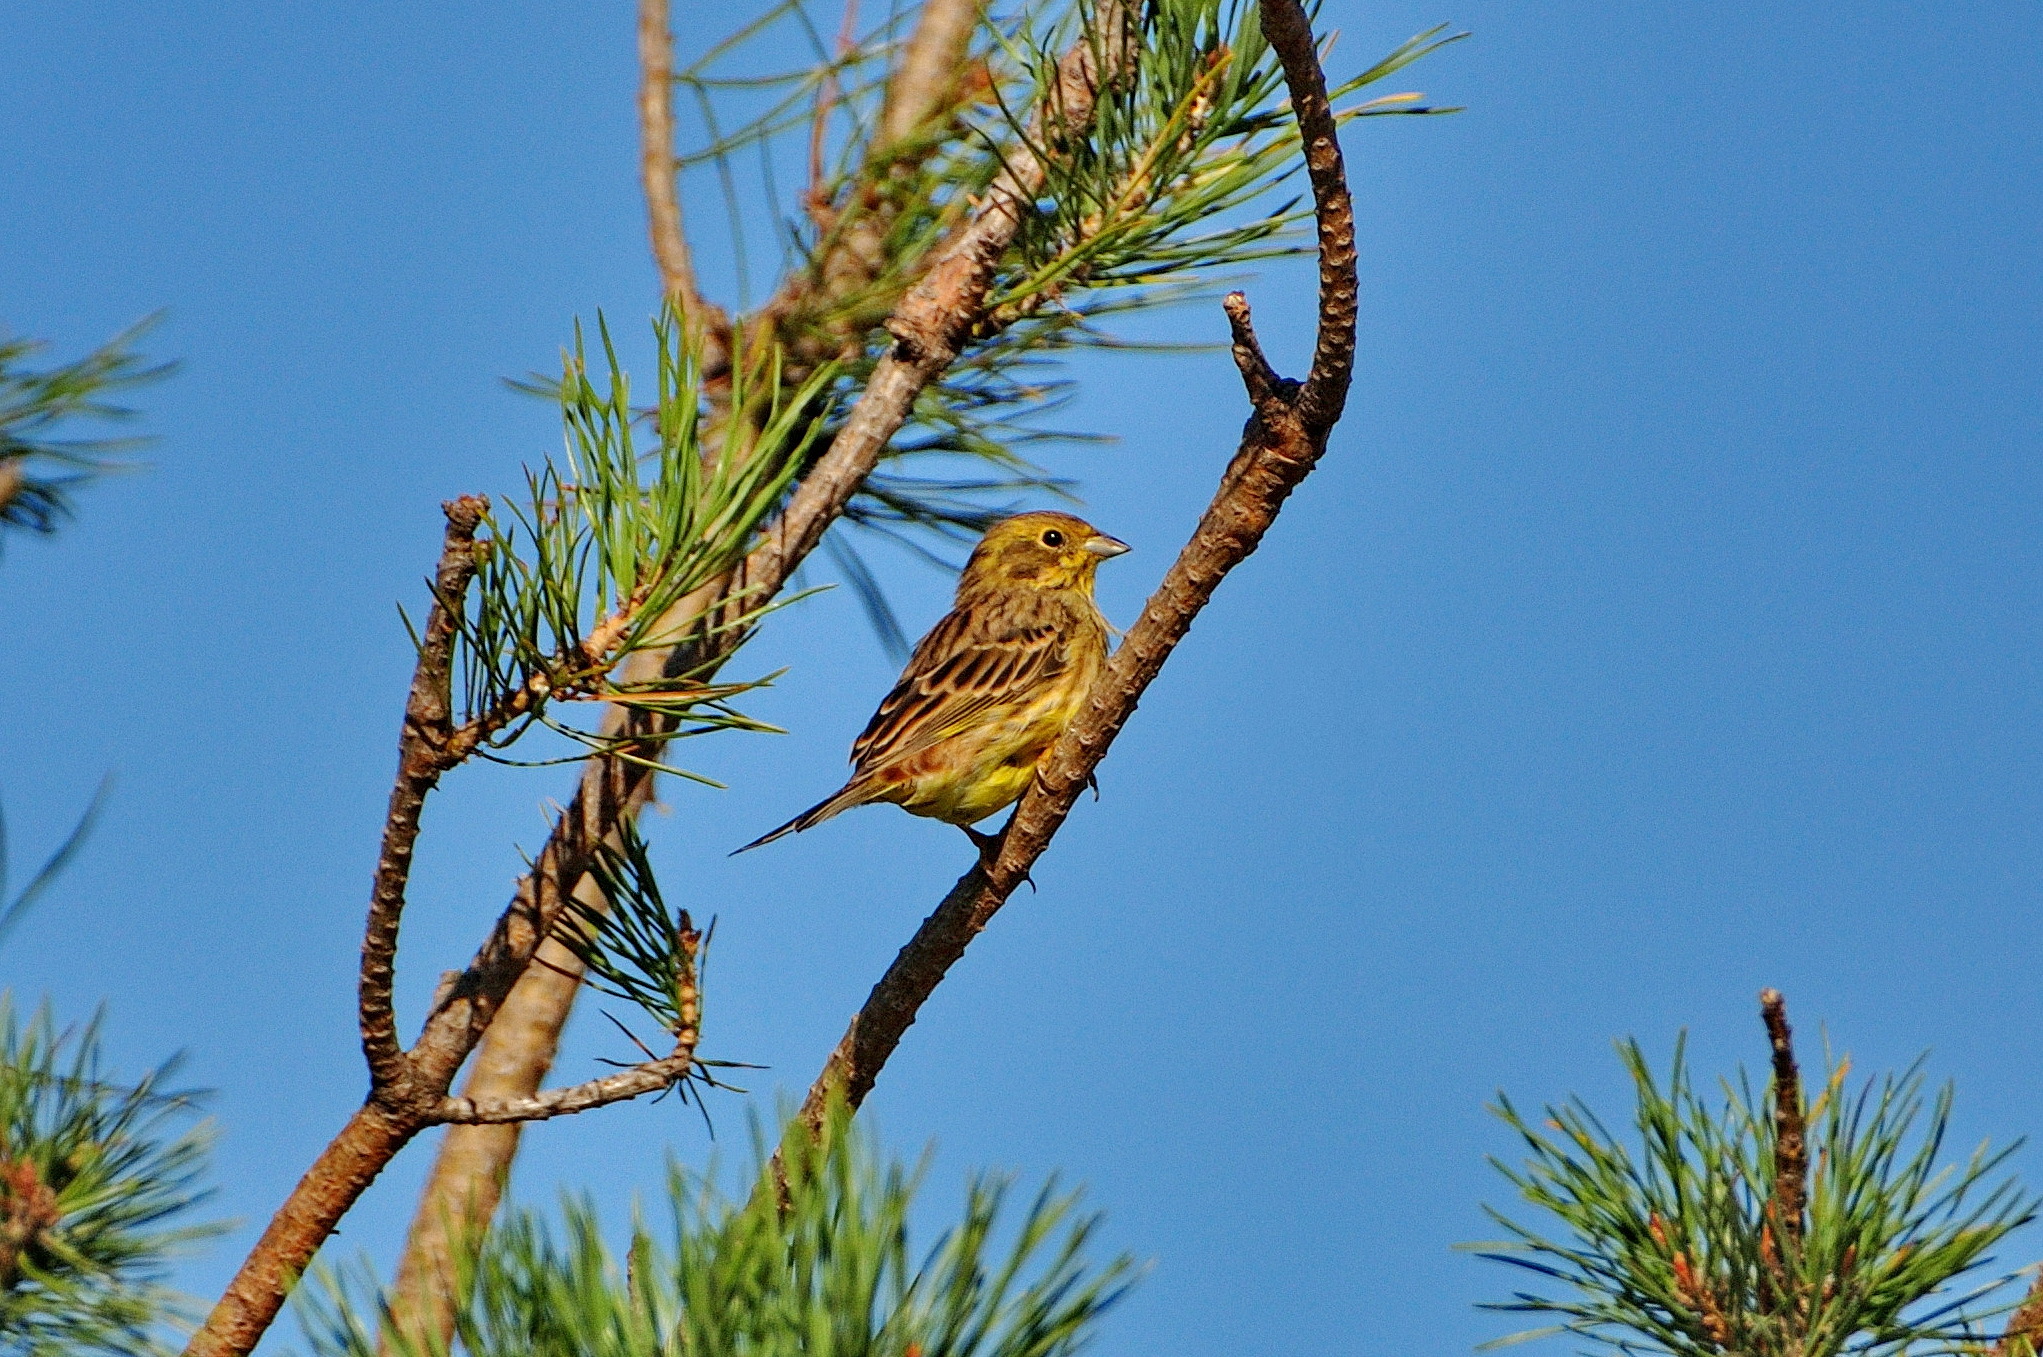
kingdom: Animalia
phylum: Chordata
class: Aves
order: Passeriformes
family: Emberizidae
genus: Emberiza
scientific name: Emberiza citrinella
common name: Yellowhammer
